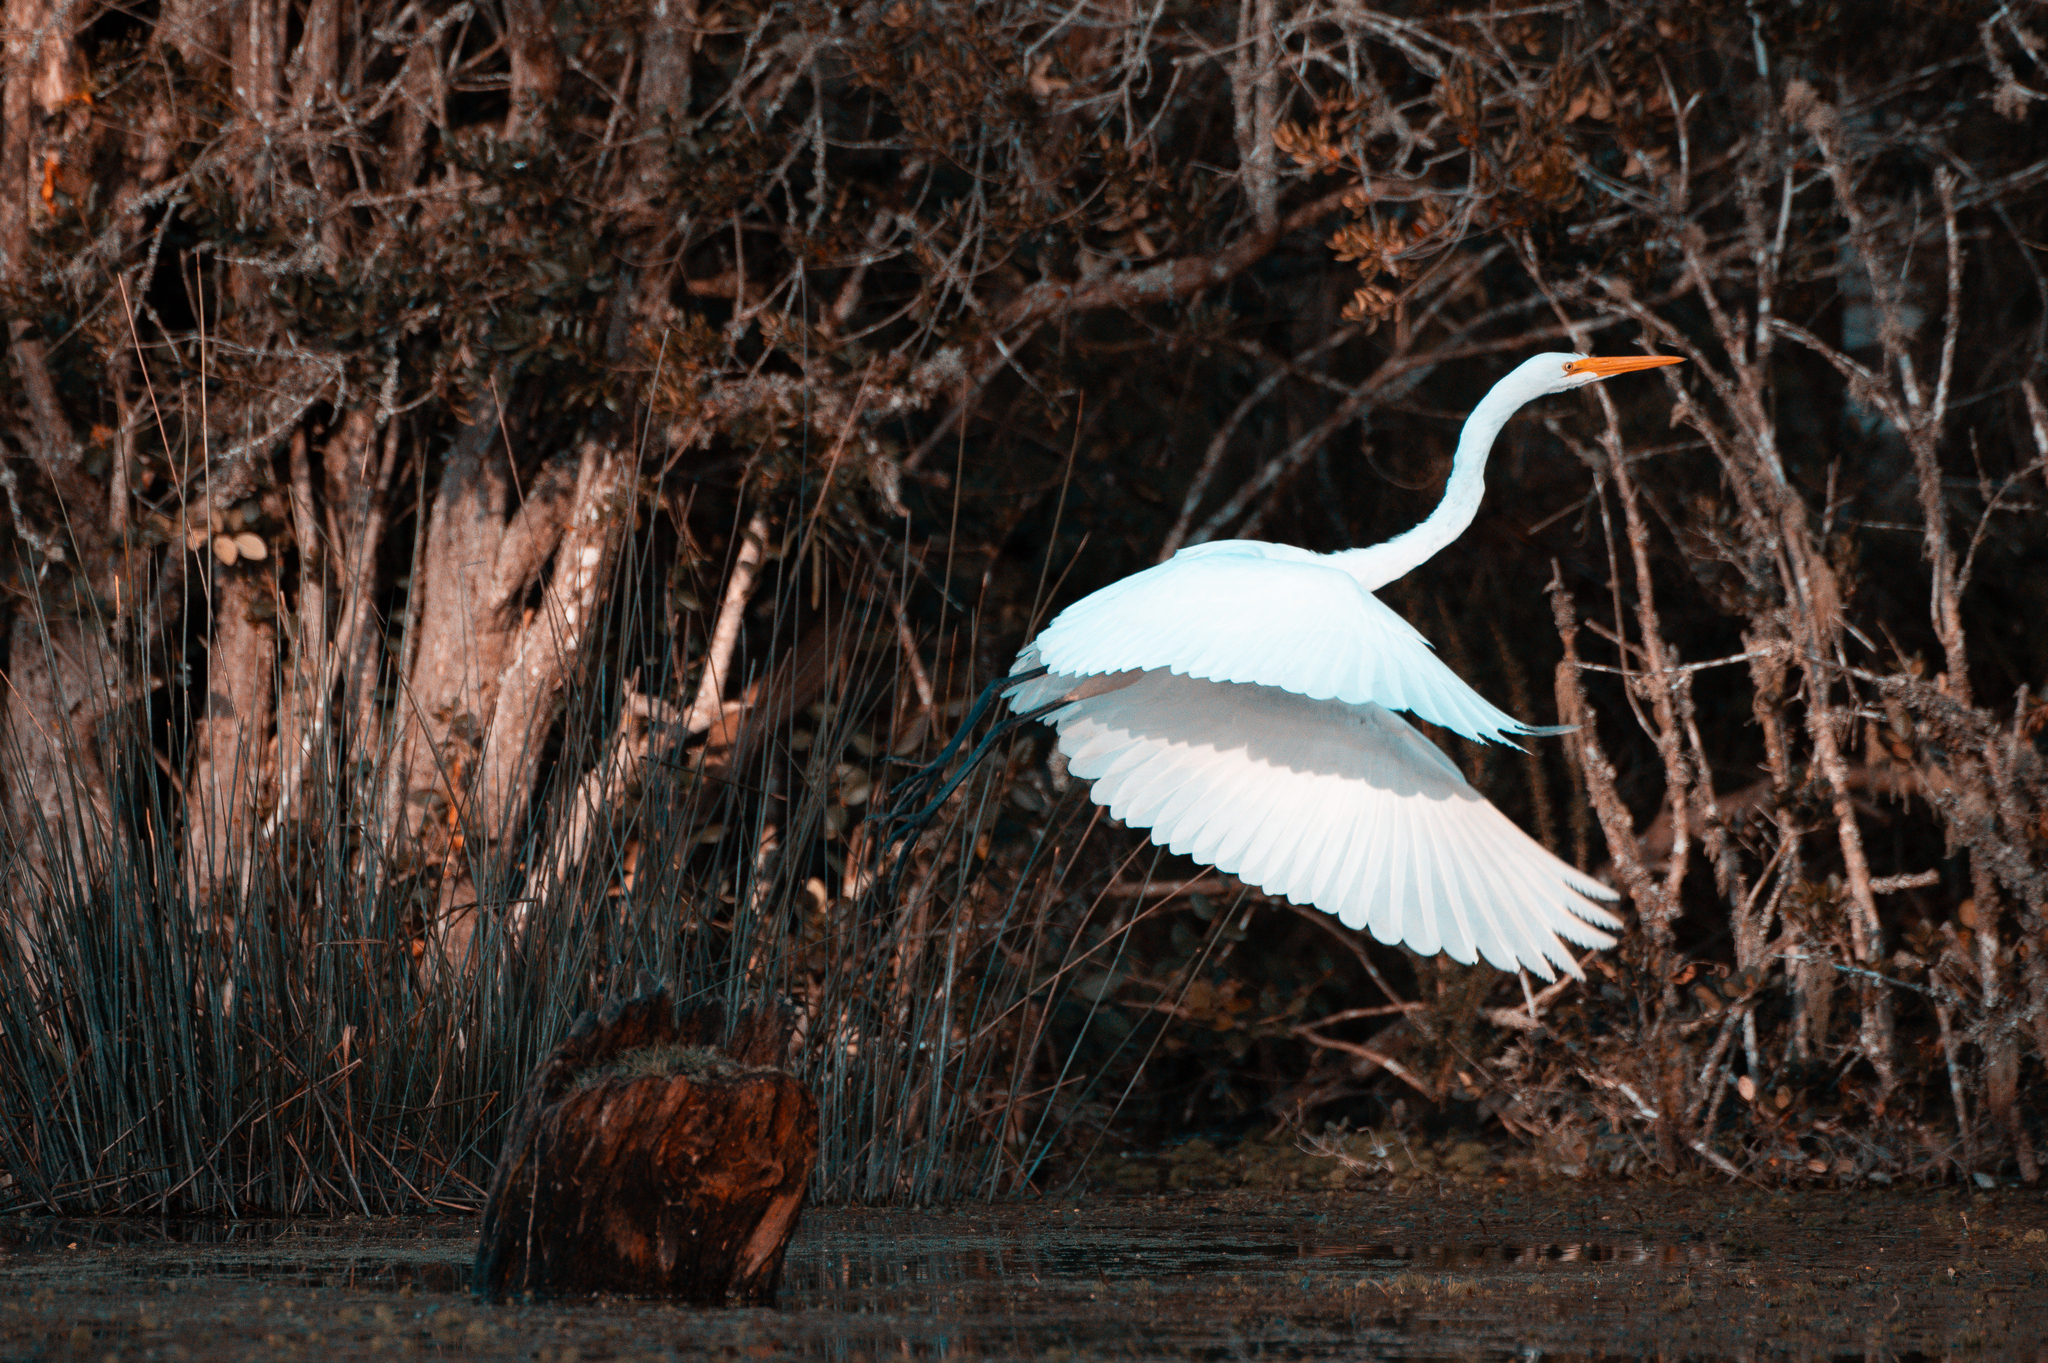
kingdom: Animalia
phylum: Chordata
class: Aves
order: Pelecaniformes
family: Ardeidae
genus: Ardea
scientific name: Ardea alba
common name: Great egret
